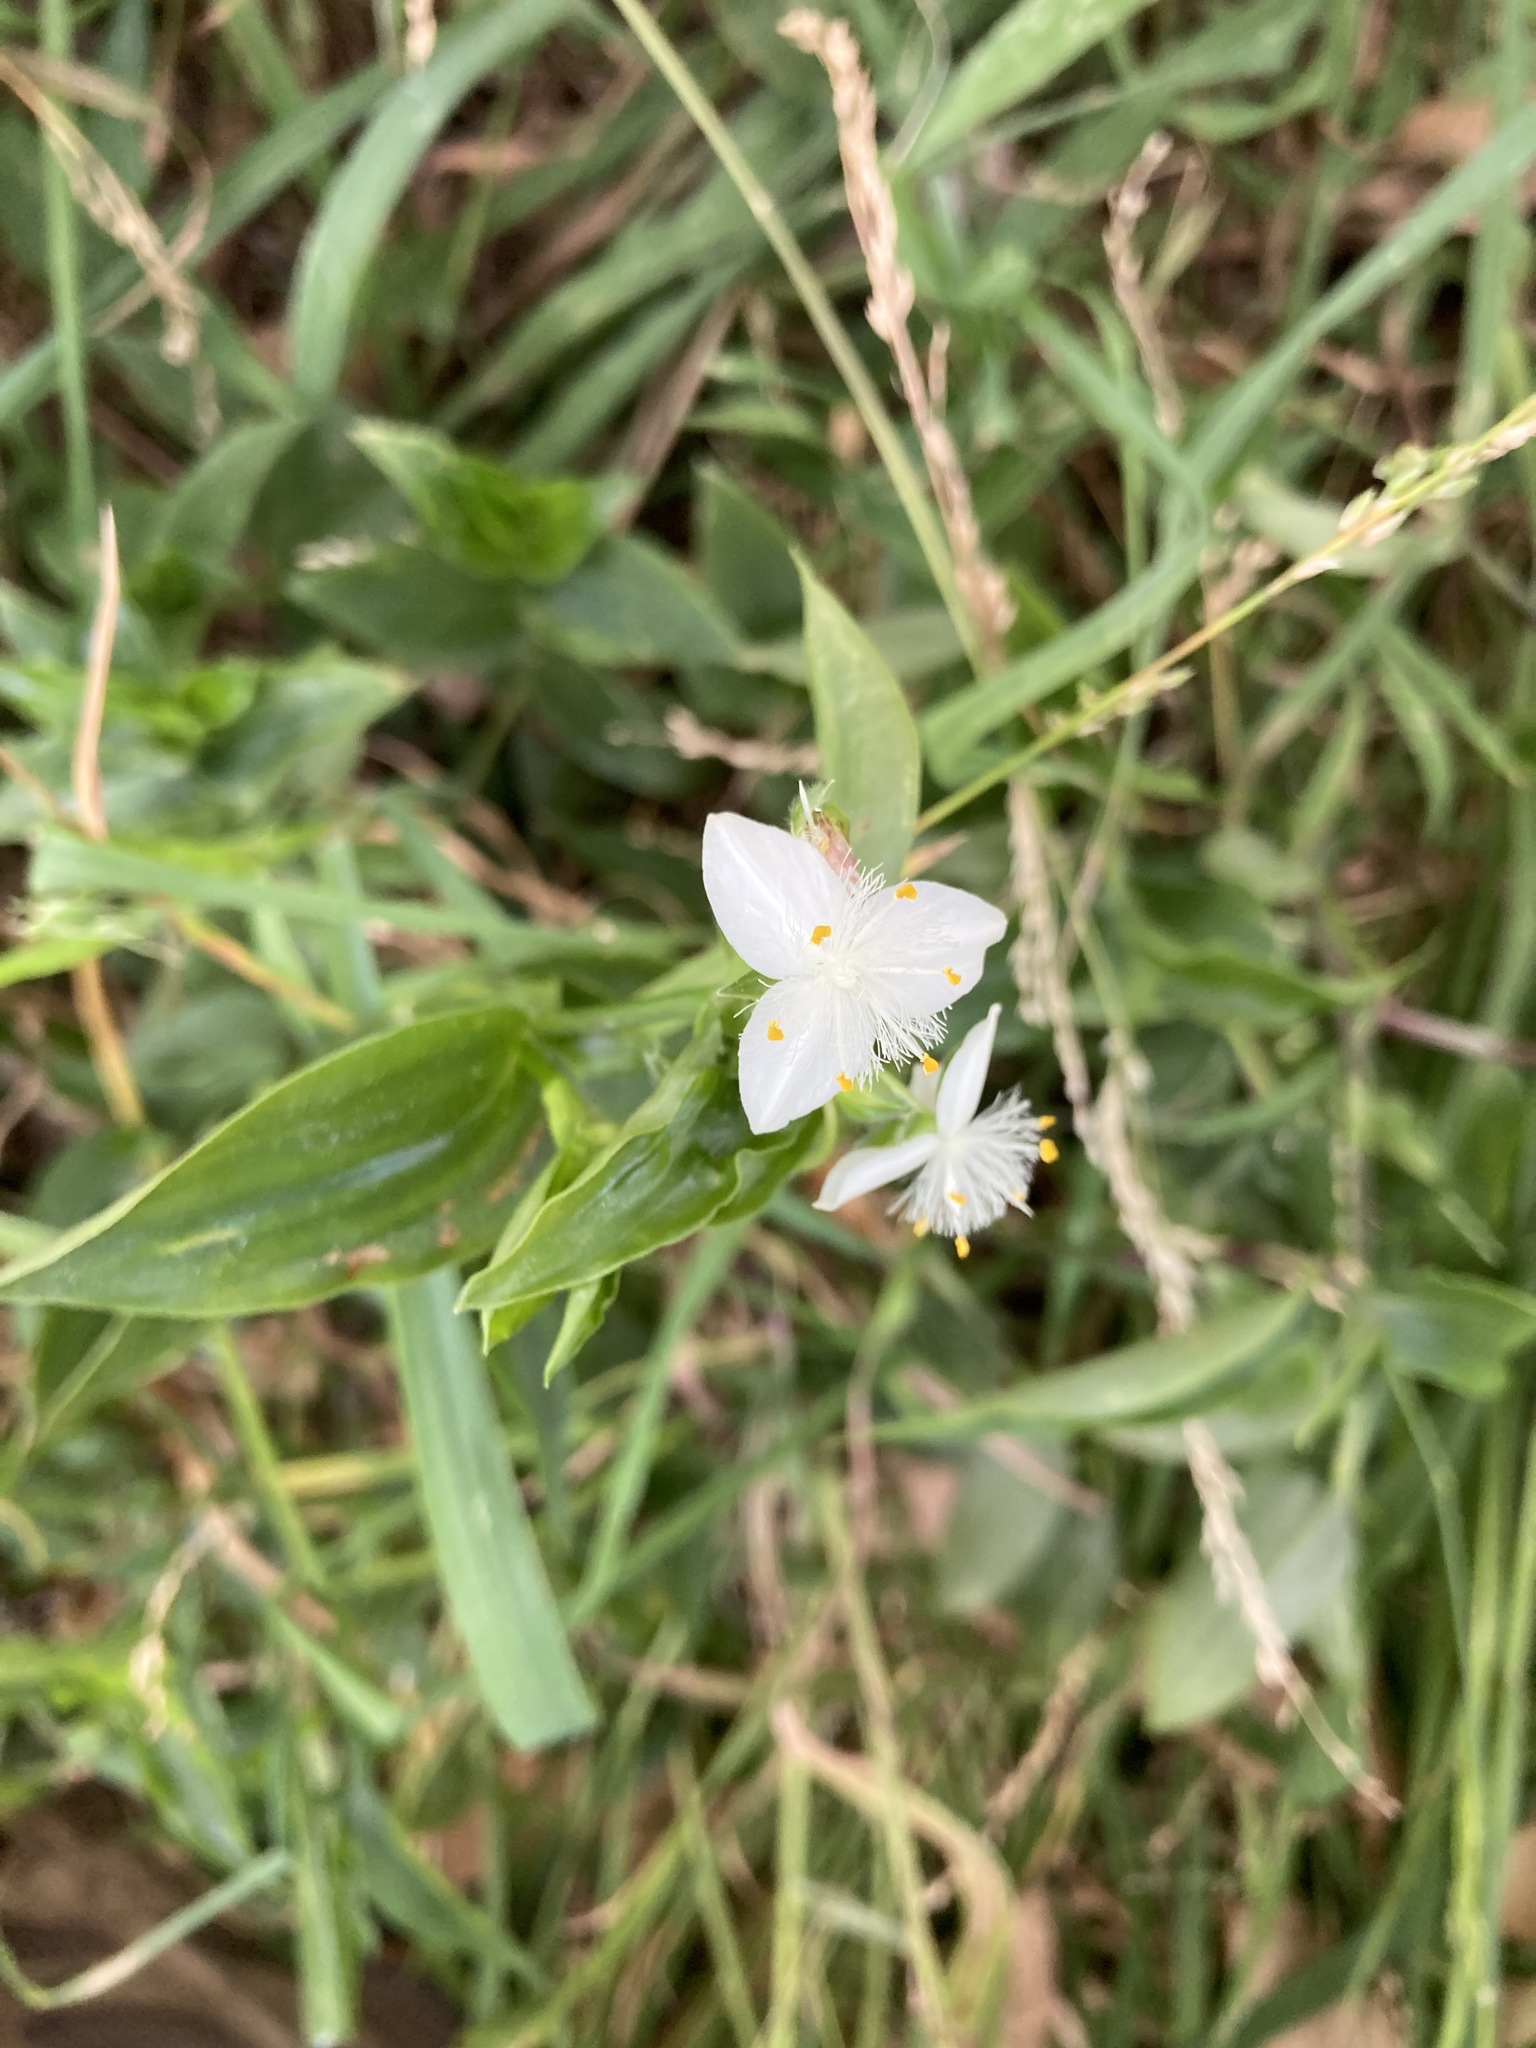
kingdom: Plantae
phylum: Tracheophyta
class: Liliopsida
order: Commelinales
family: Commelinaceae
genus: Tradescantia
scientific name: Tradescantia fluminensis
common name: Wandering-jew
